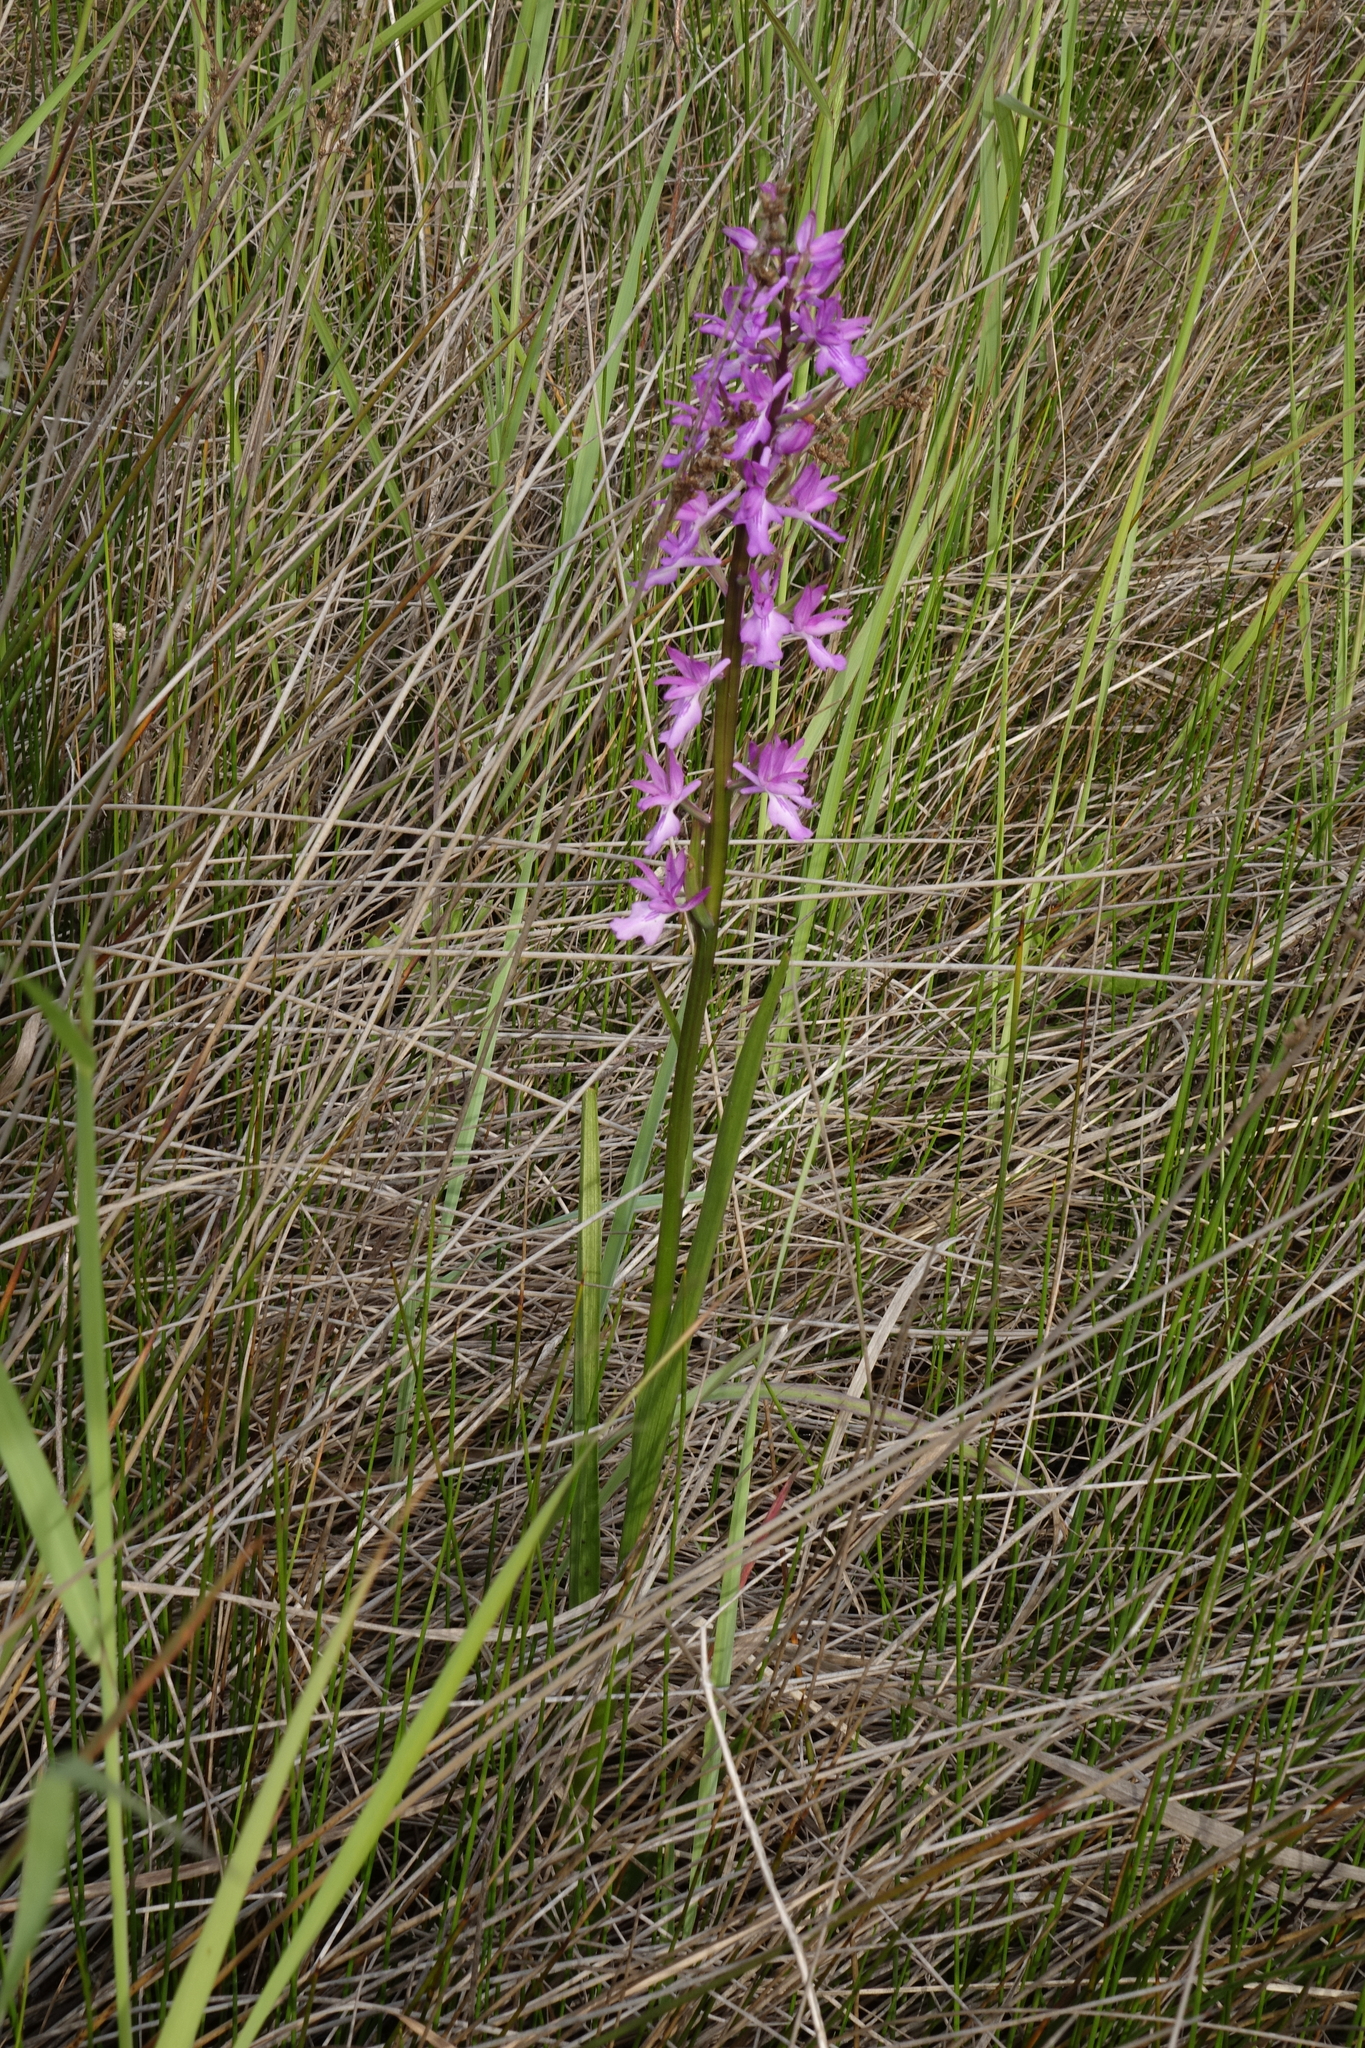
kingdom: Plantae
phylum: Tracheophyta
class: Liliopsida
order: Asparagales
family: Orchidaceae
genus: Anacamptis
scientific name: Anacamptis palustris
